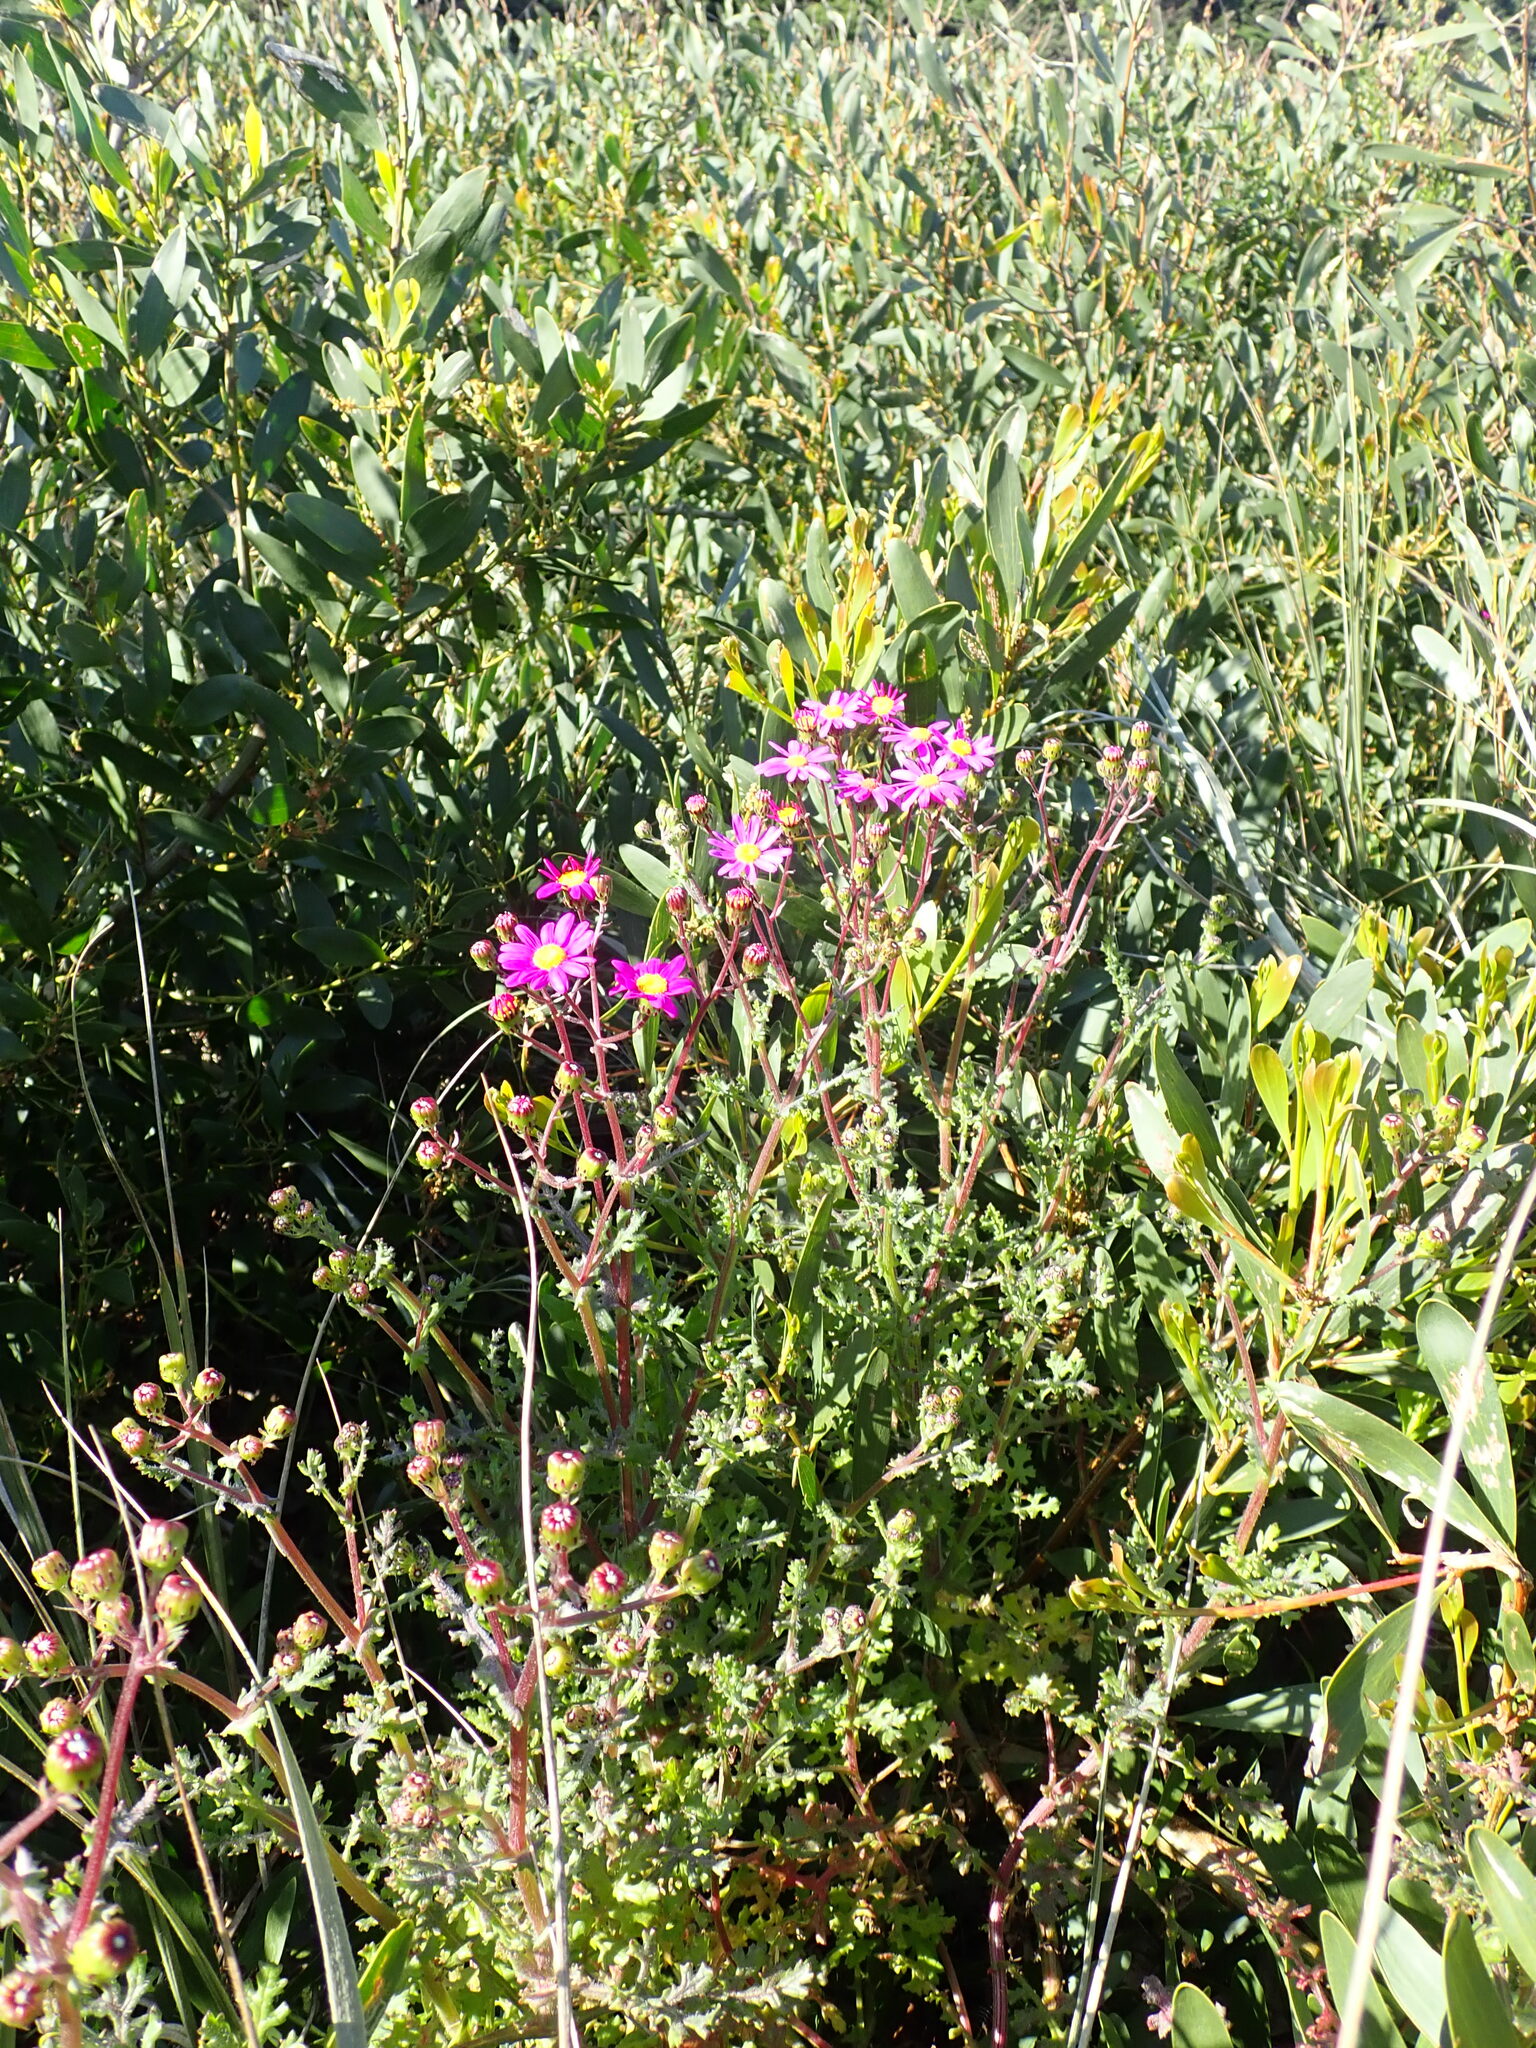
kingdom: Plantae
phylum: Tracheophyta
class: Magnoliopsida
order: Asterales
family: Asteraceae
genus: Senecio
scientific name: Senecio elegans
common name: Purple groundsel
